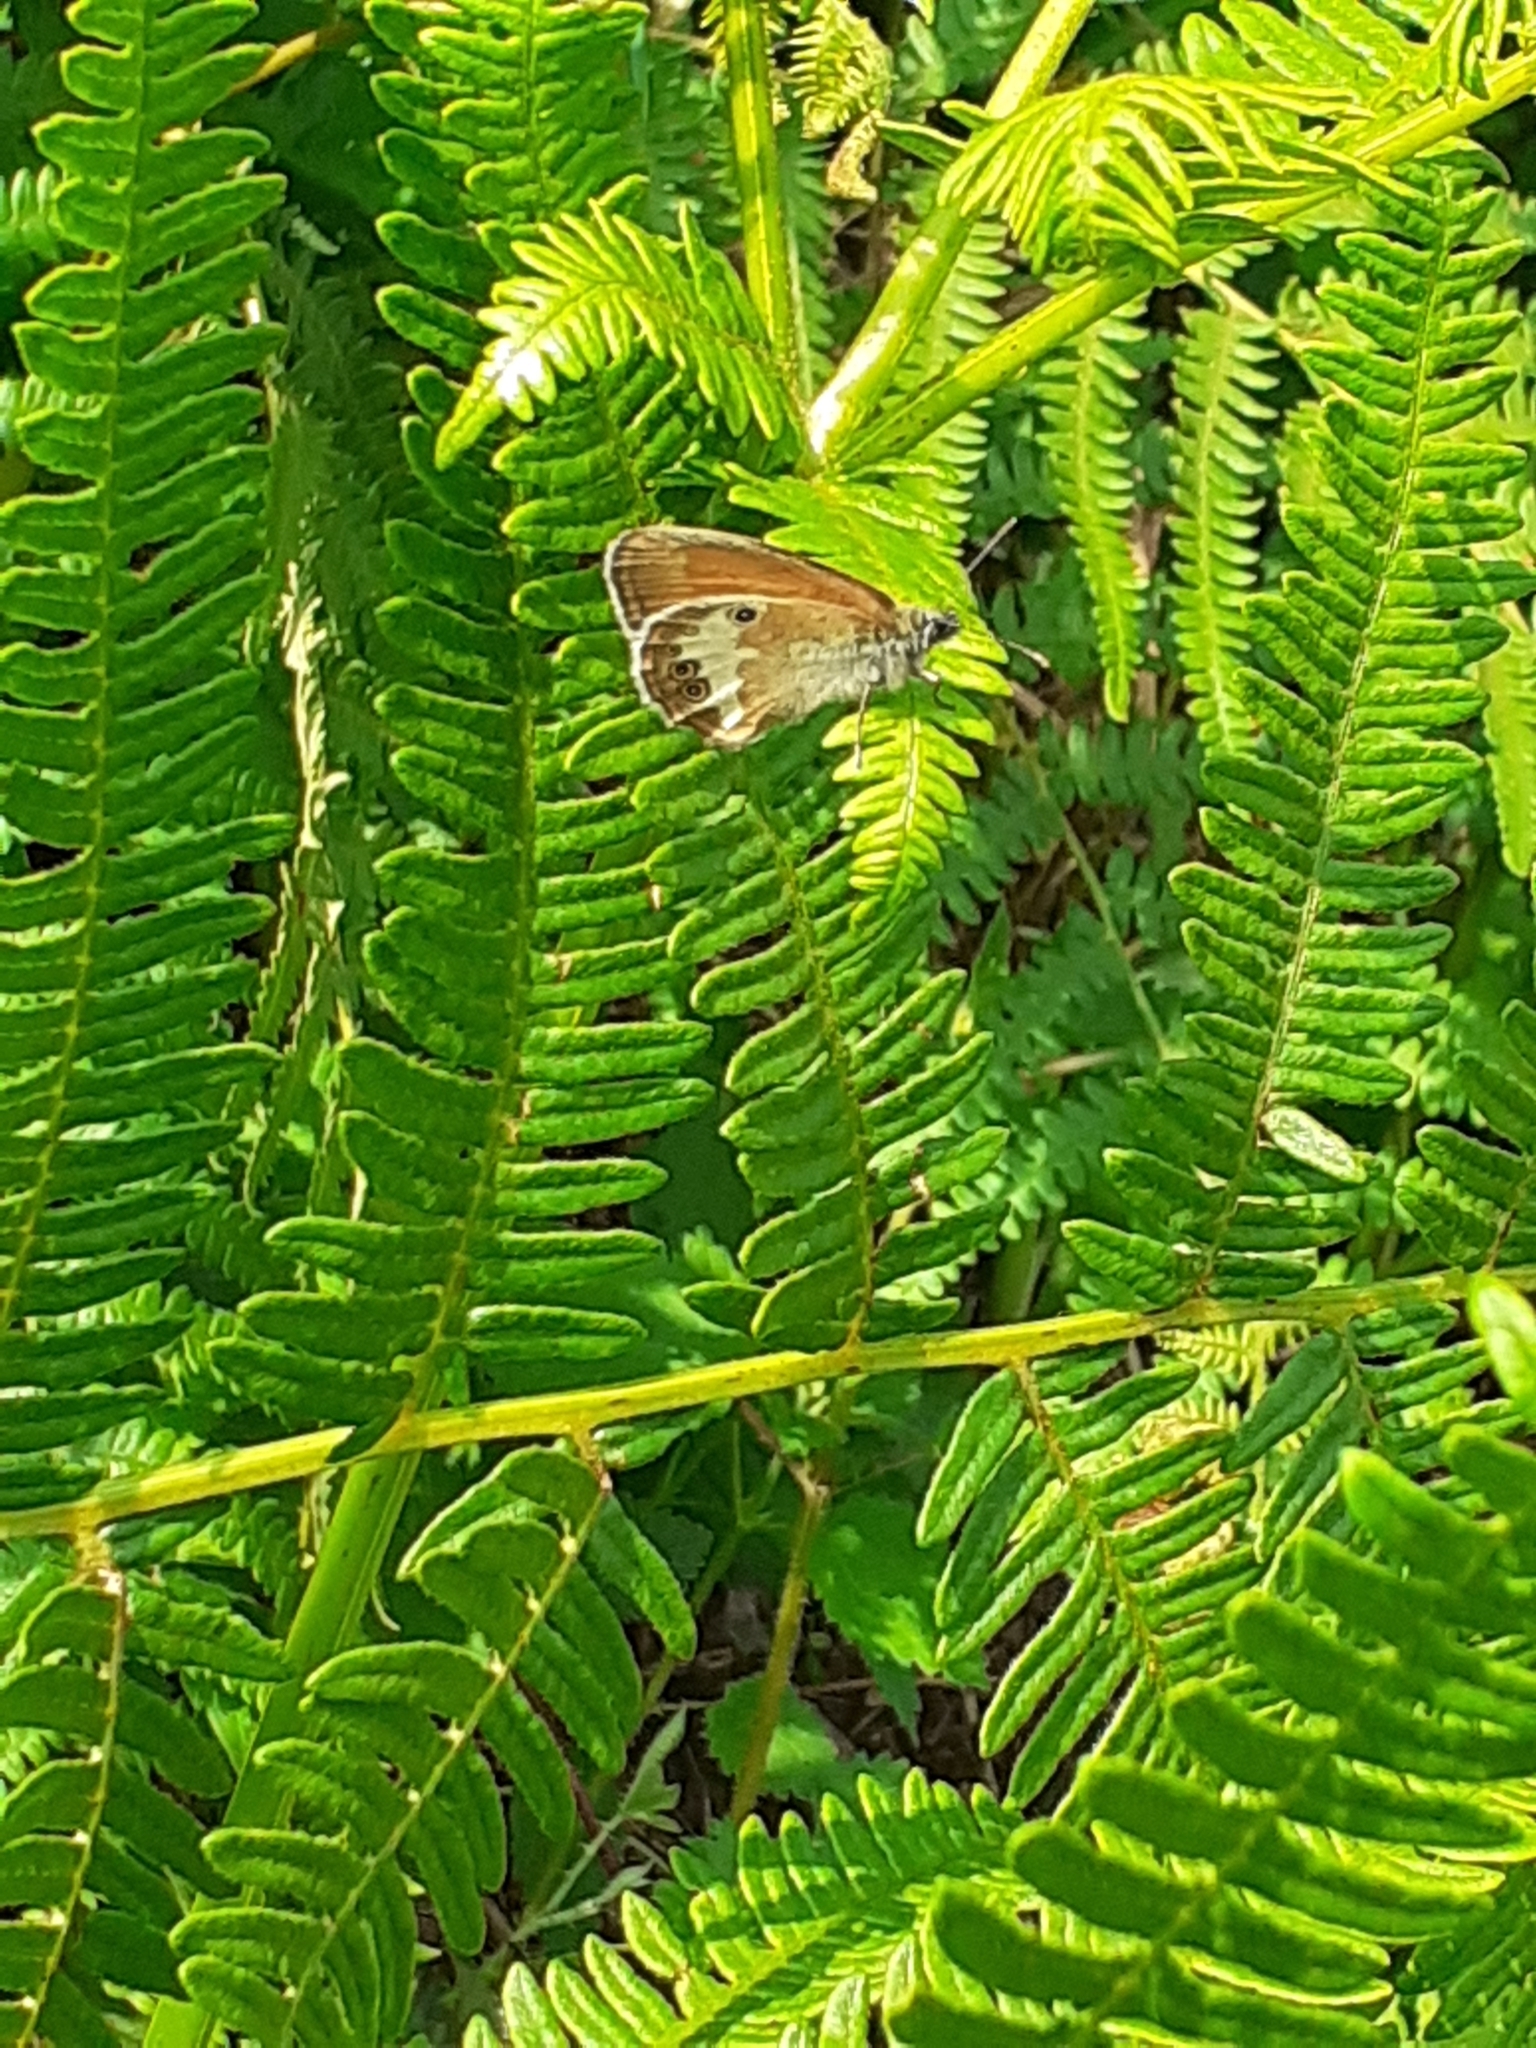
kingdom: Animalia
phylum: Arthropoda
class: Insecta
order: Lepidoptera
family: Nymphalidae
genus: Coenonympha
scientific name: Coenonympha arcania
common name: Pearly heath
